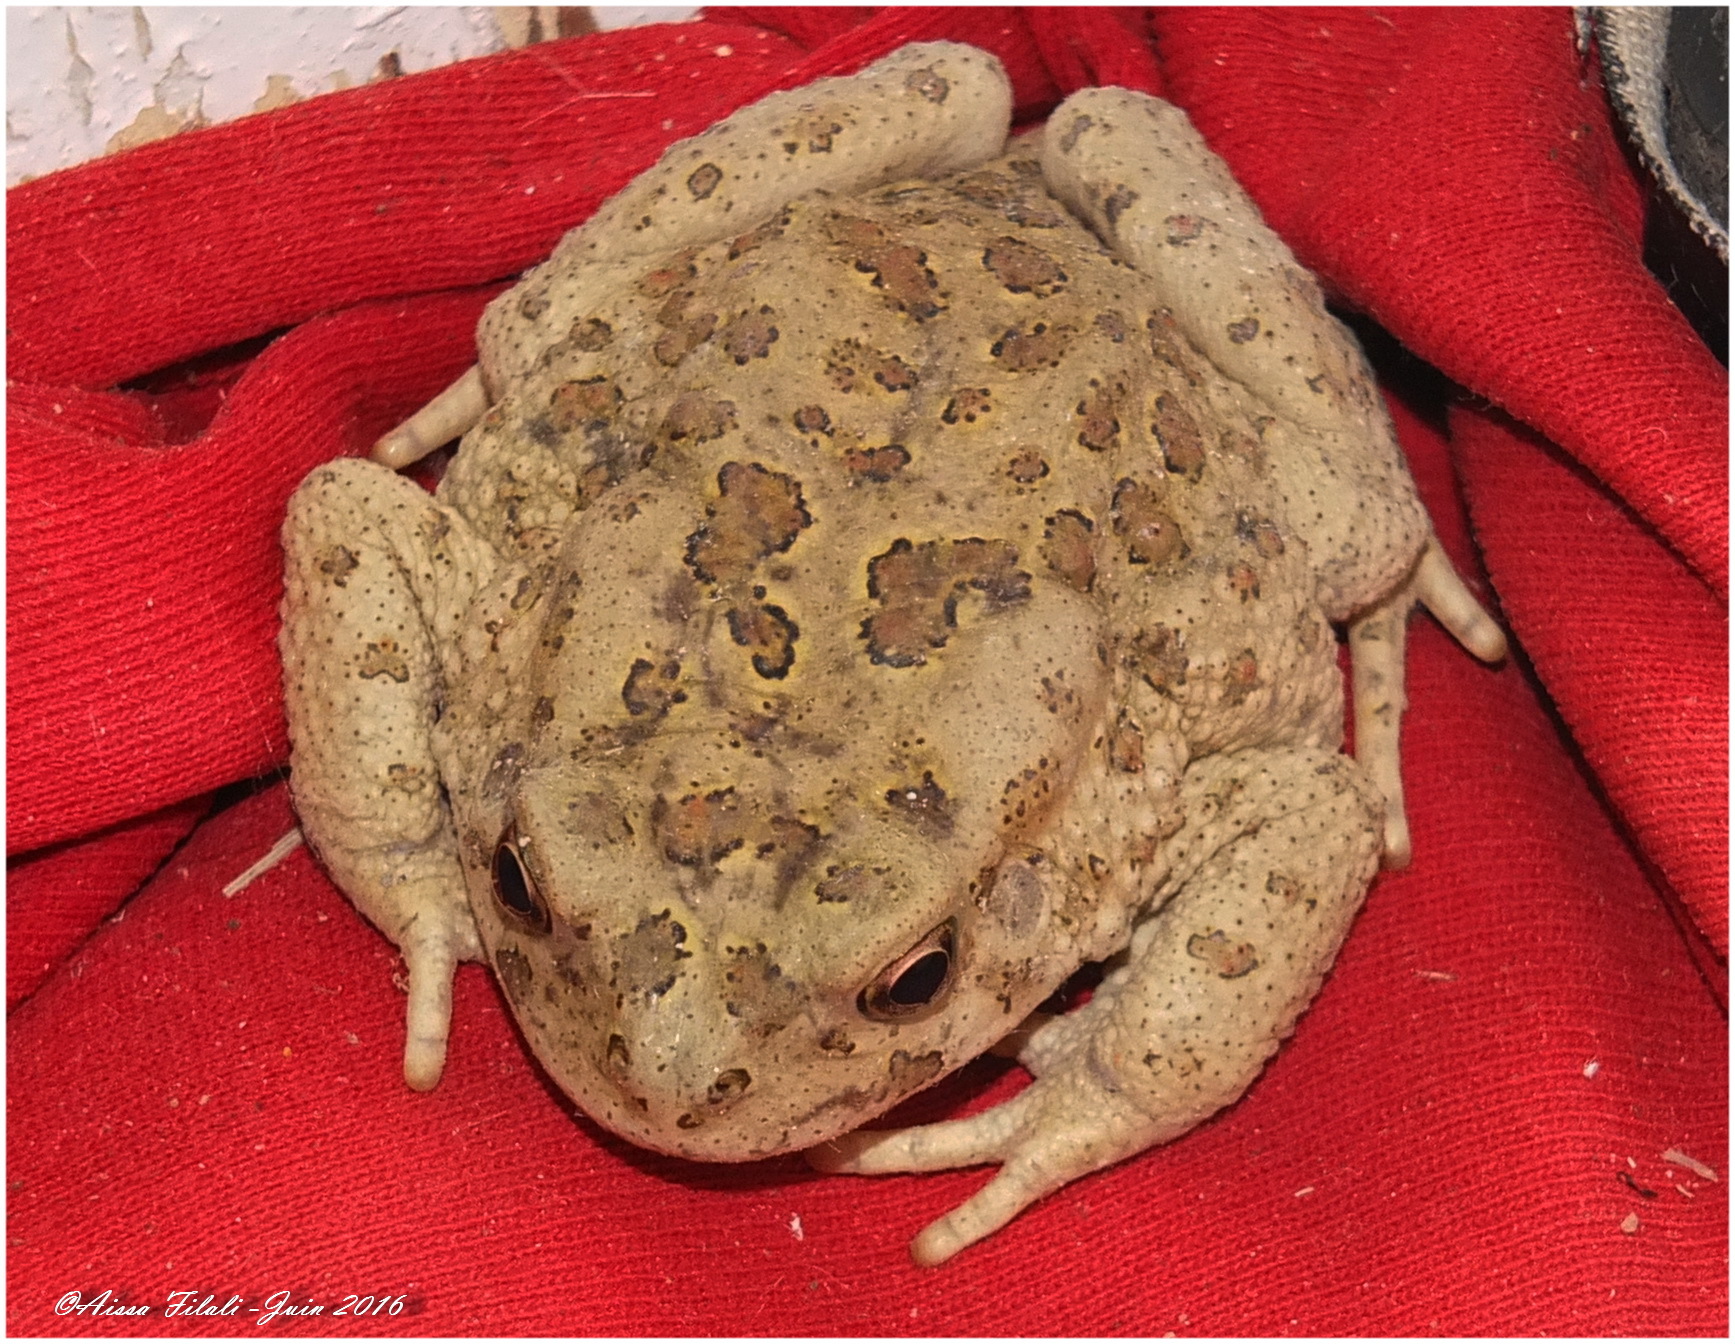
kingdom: Animalia
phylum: Chordata
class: Amphibia
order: Anura
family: Bufonidae
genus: Sclerophrys
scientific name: Sclerophrys mauritanica
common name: Berber toad
